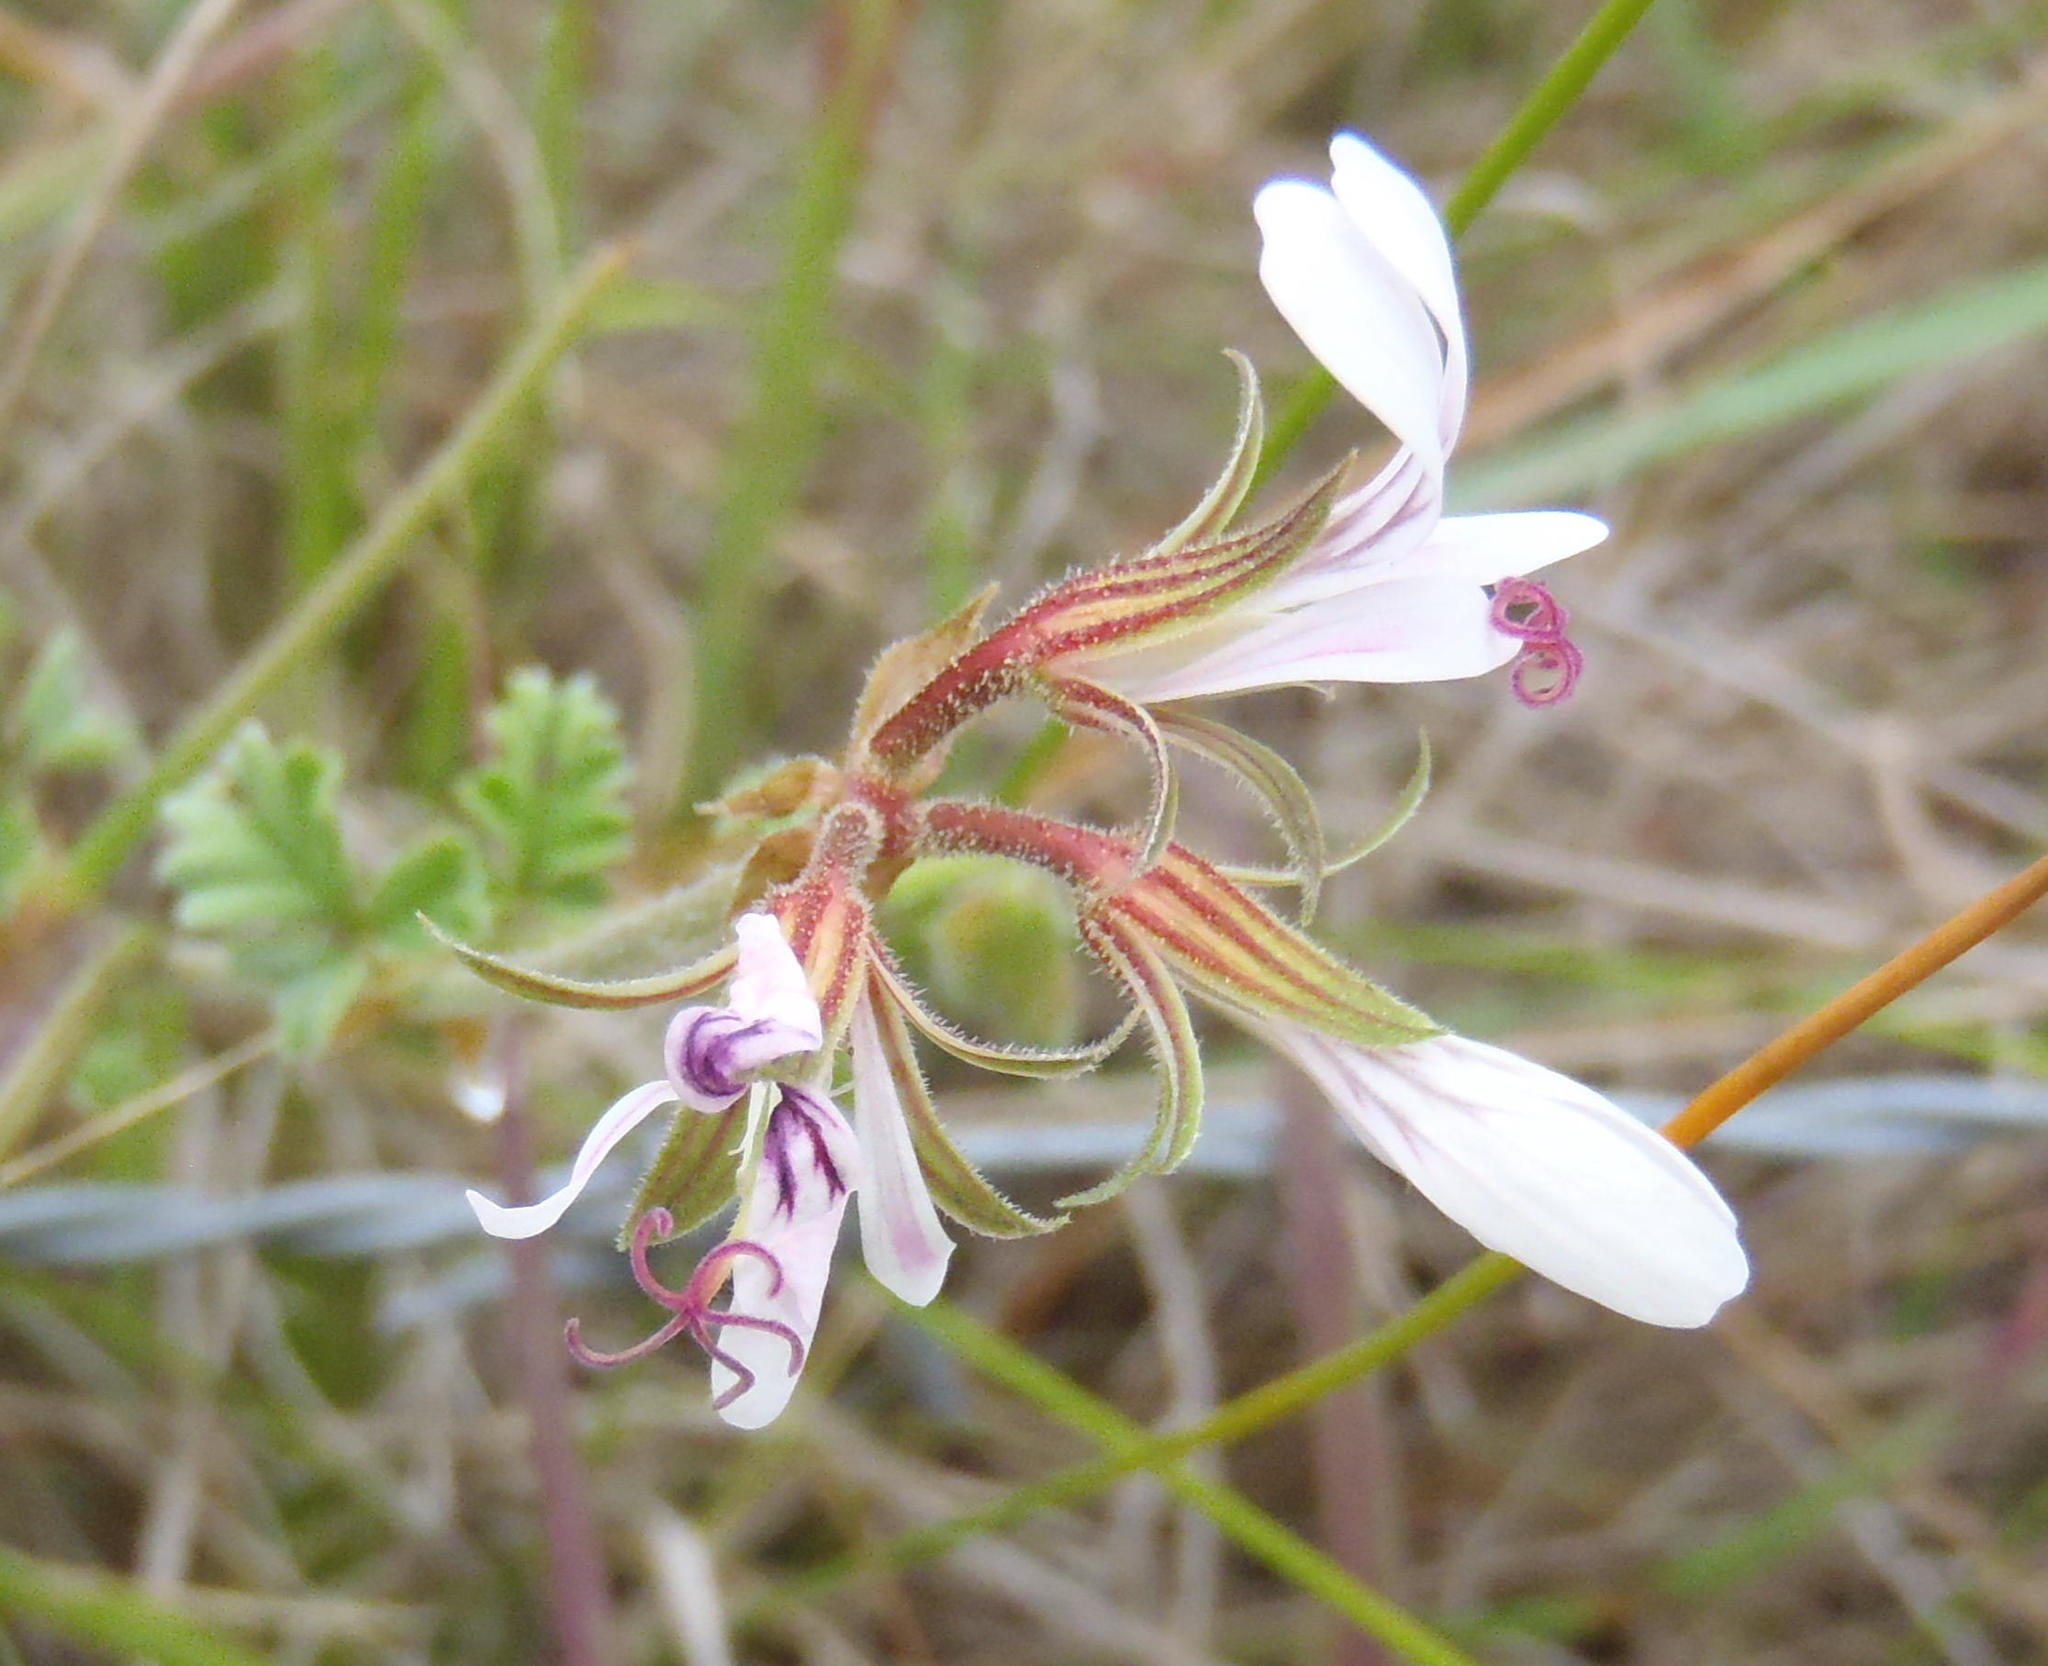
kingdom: Plantae
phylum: Tracheophyta
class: Magnoliopsida
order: Geraniales
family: Geraniaceae
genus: Pelargonium
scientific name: Pelargonium candicans
